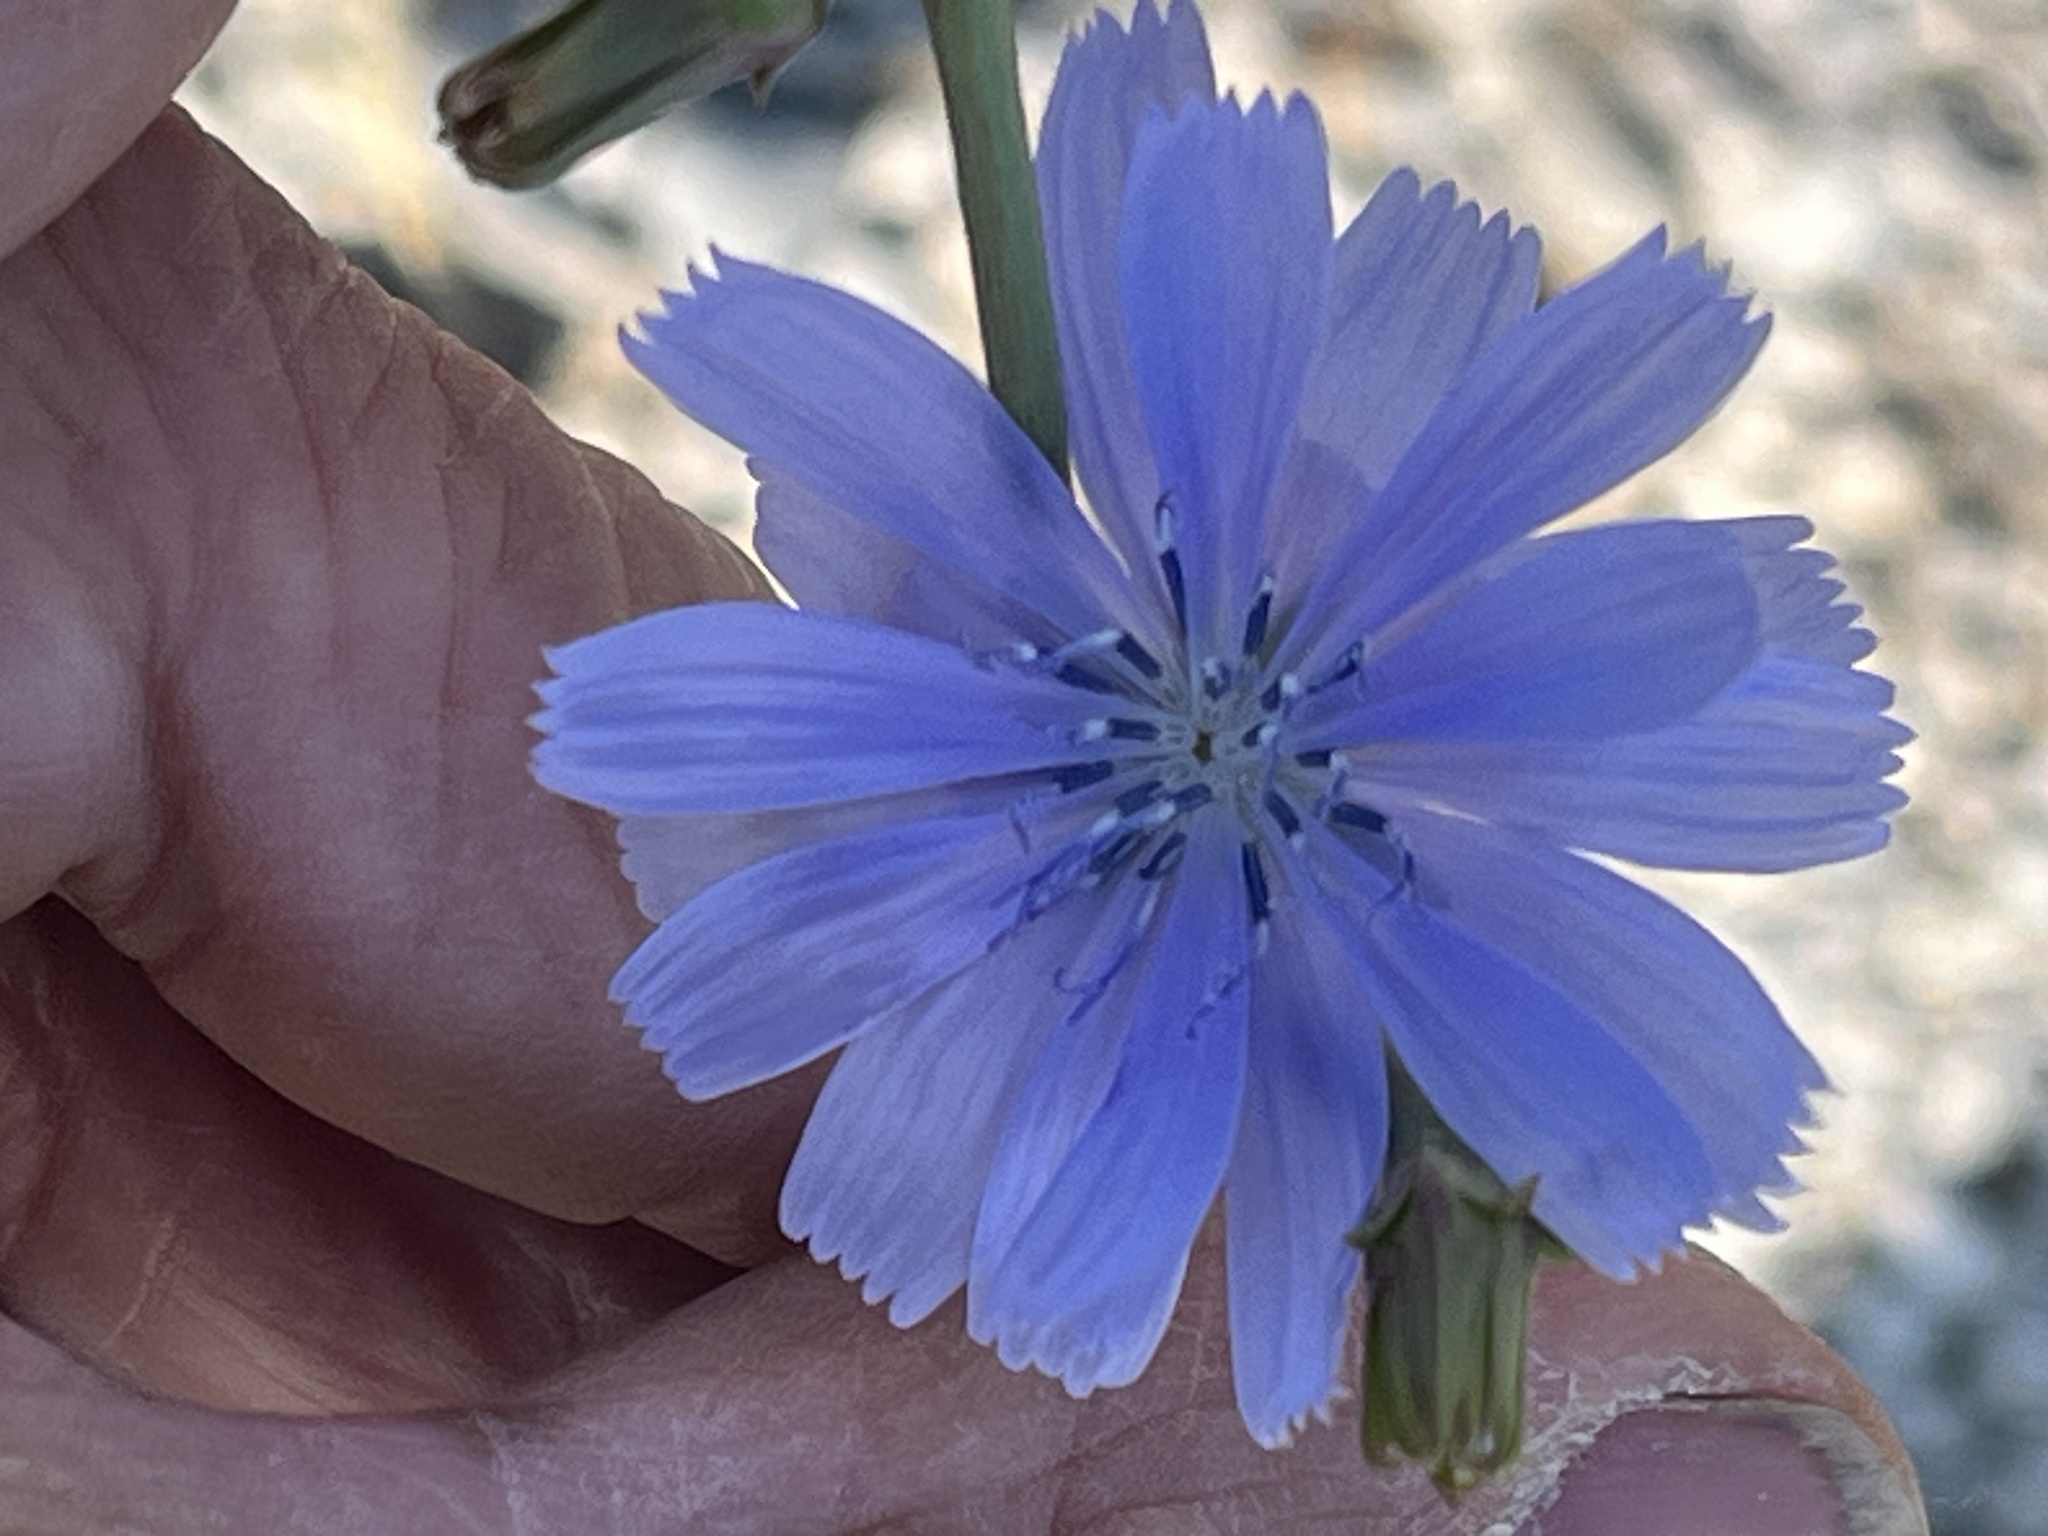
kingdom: Plantae
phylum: Tracheophyta
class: Magnoliopsida
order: Asterales
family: Asteraceae
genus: Cichorium
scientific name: Cichorium intybus
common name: Chicory
